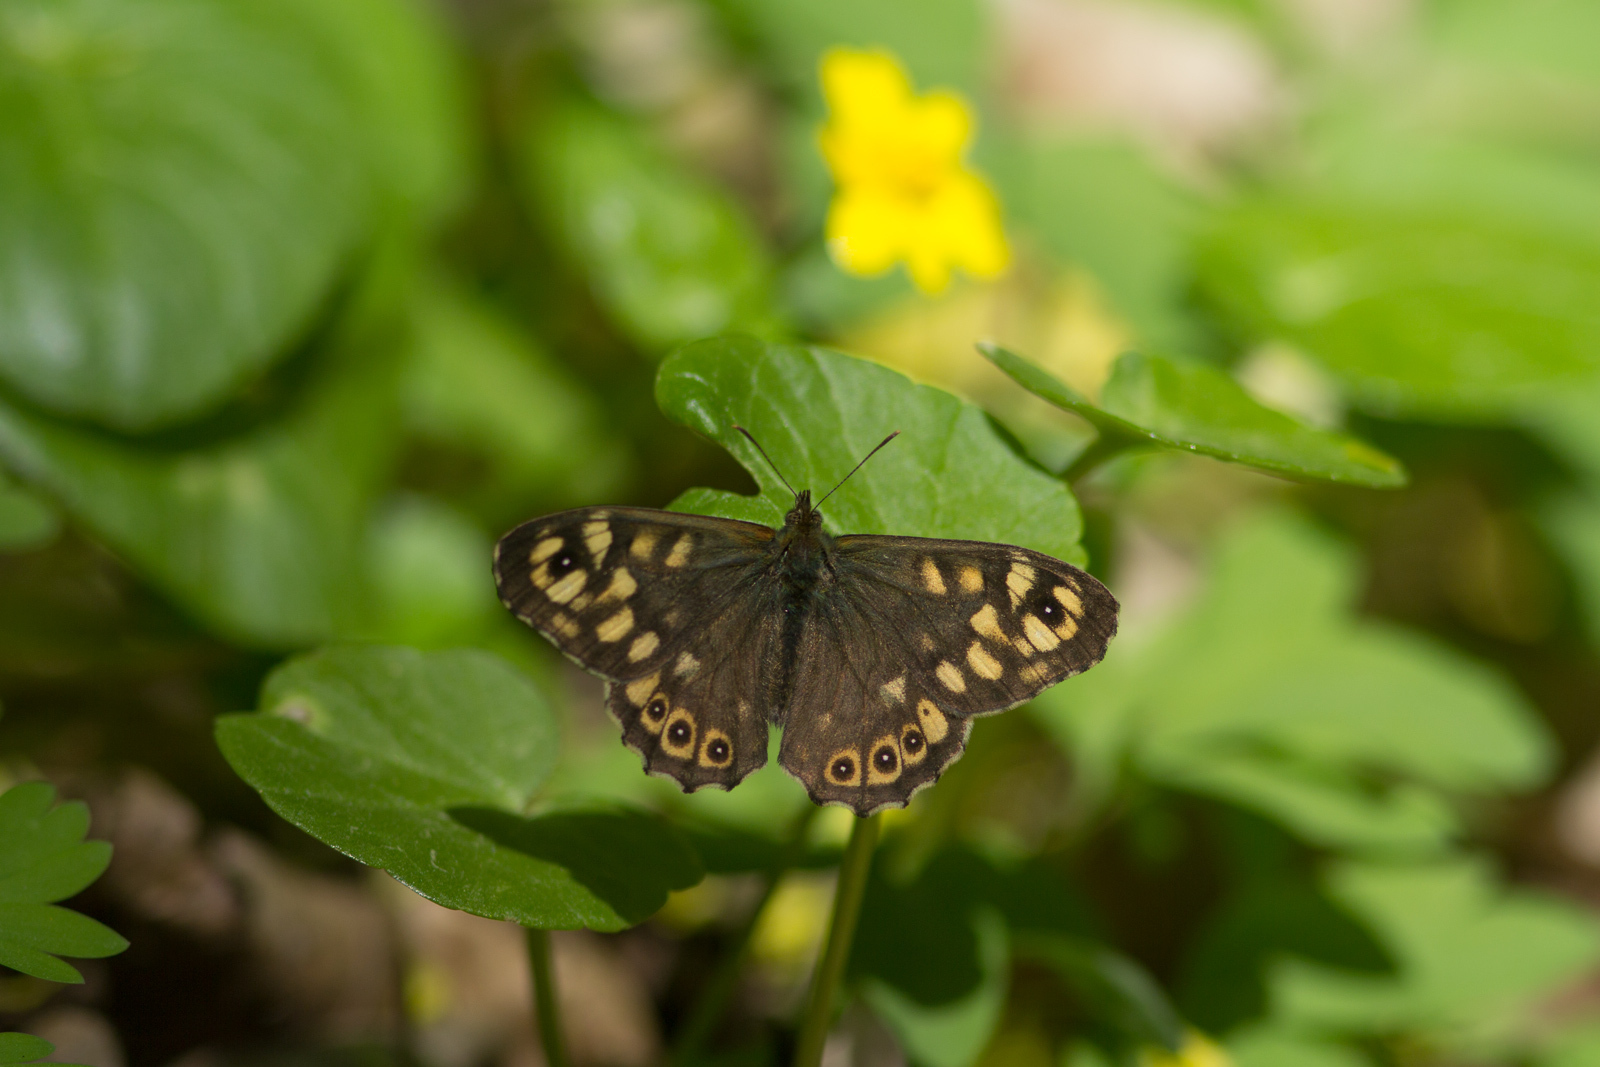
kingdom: Animalia
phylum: Arthropoda
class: Insecta
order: Lepidoptera
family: Nymphalidae
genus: Pararge
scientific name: Pararge aegeria
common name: Speckled wood
